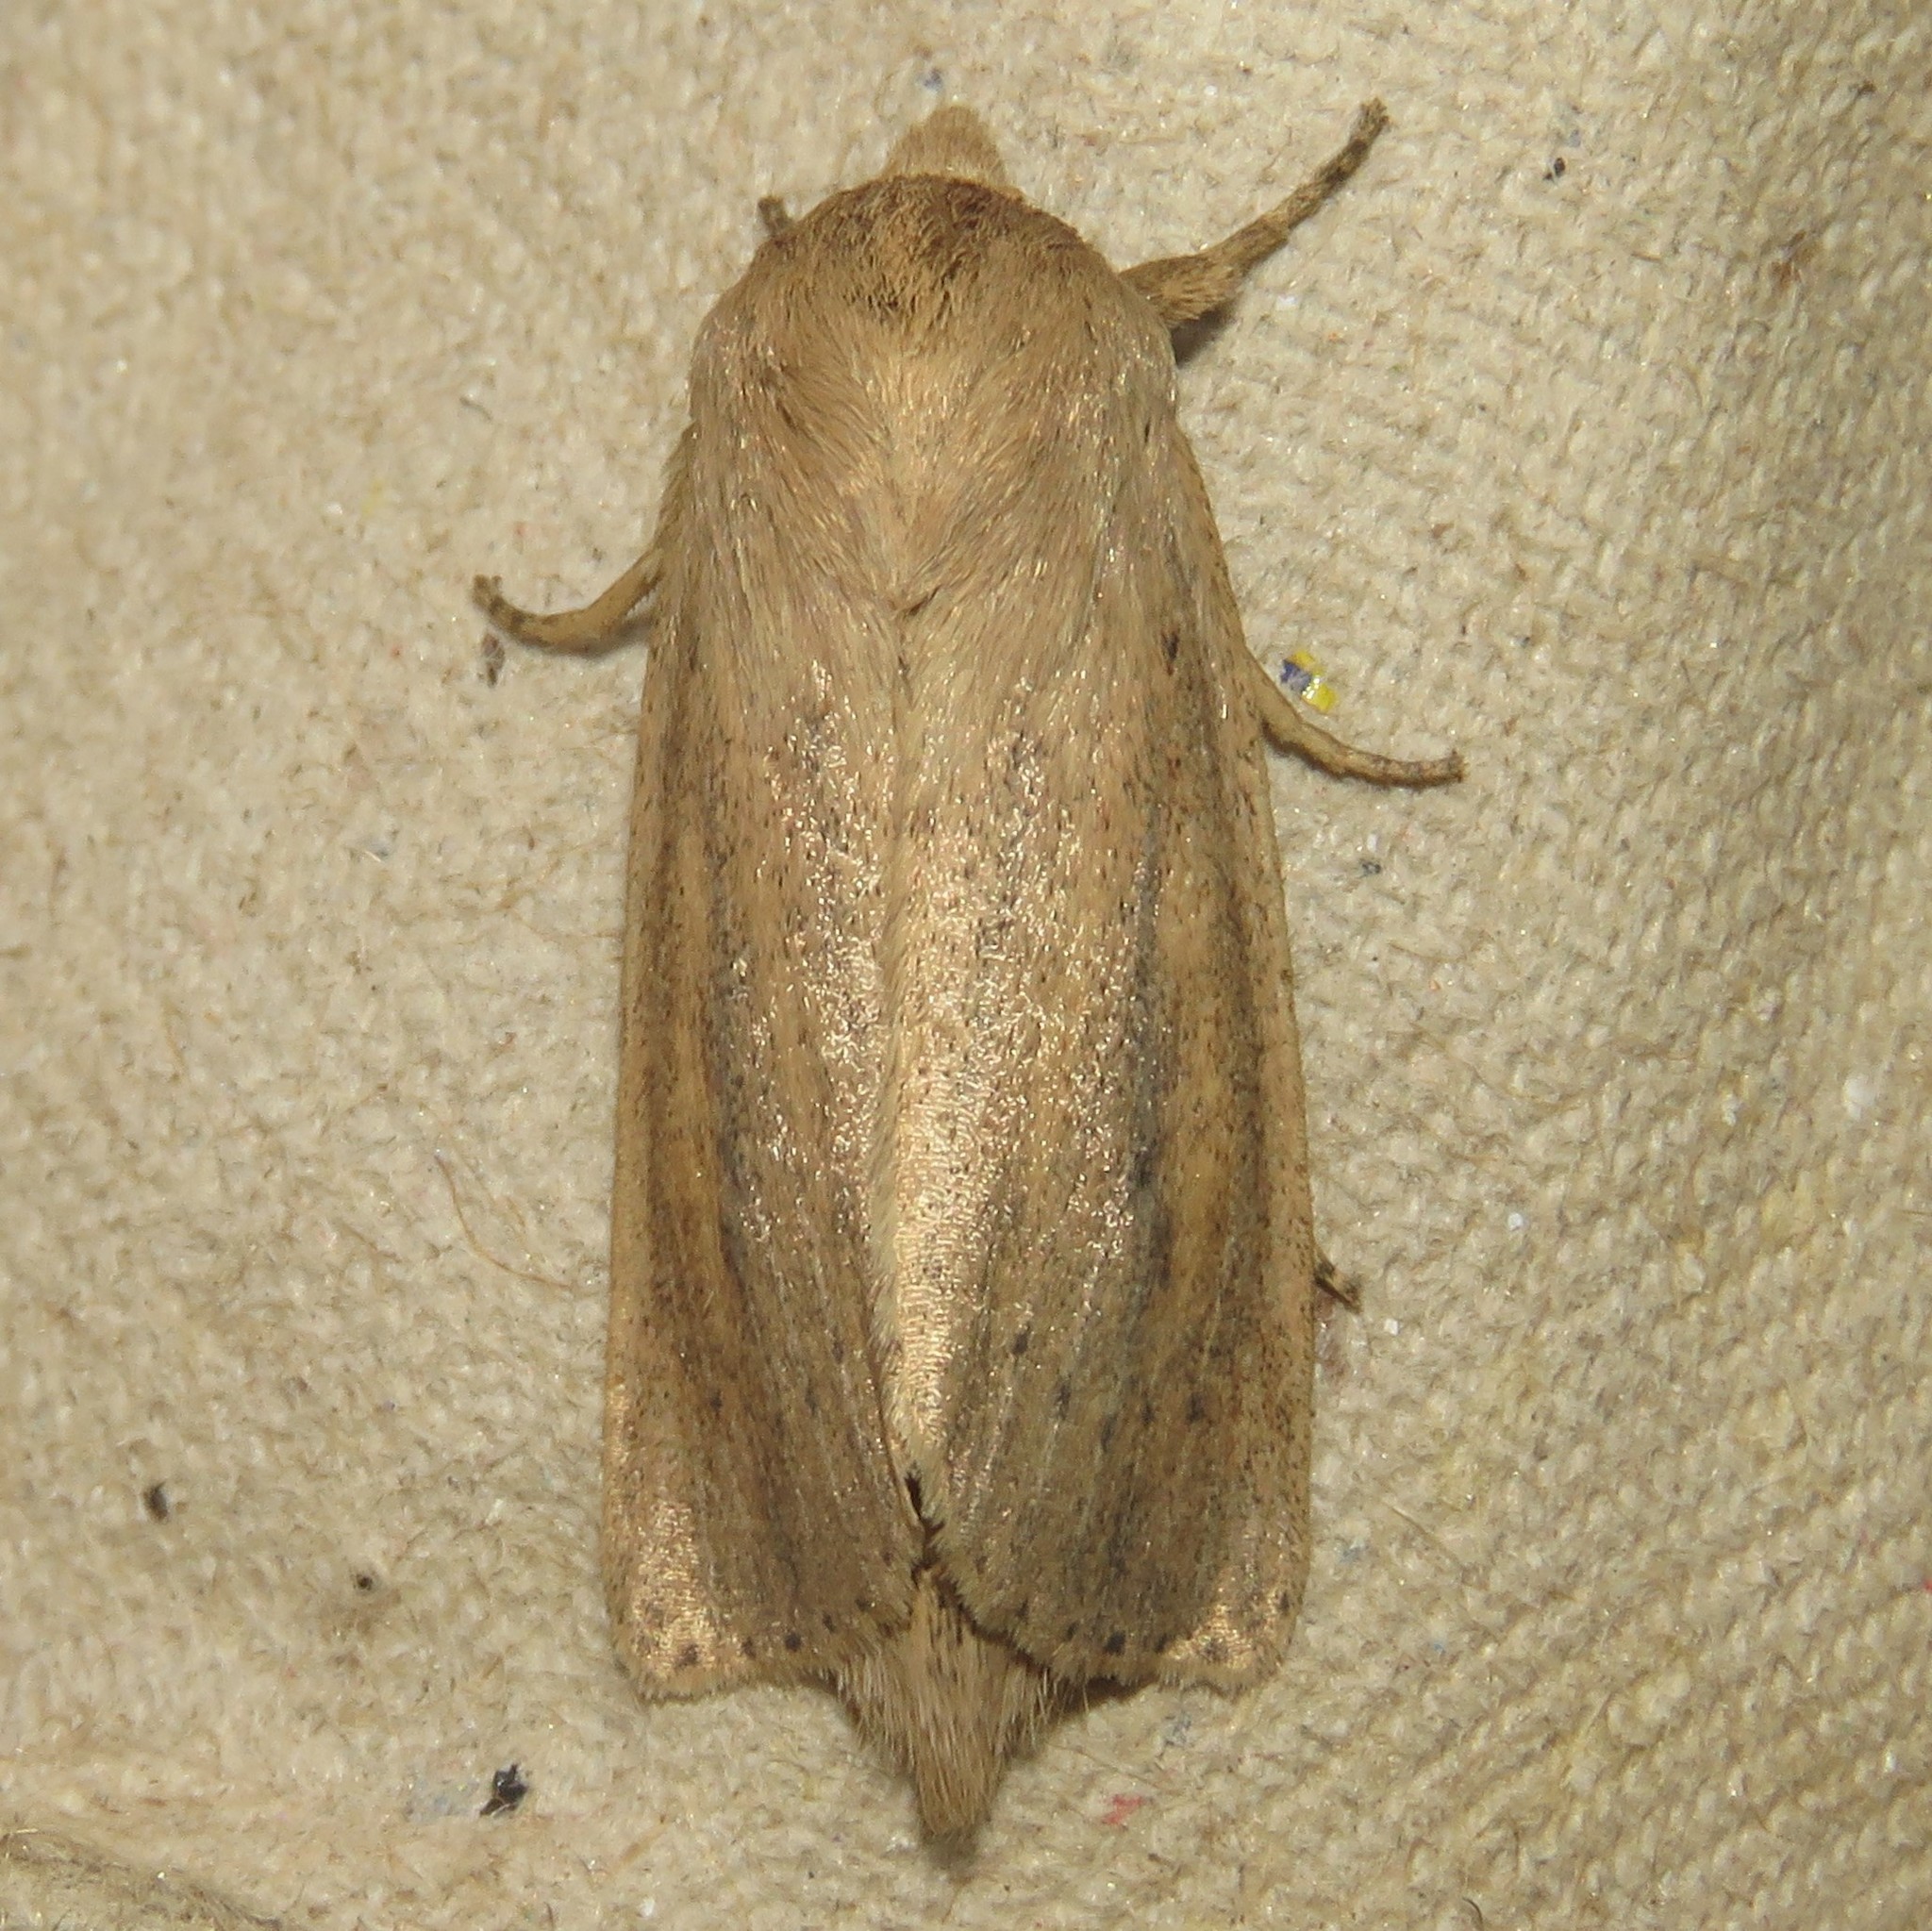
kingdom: Animalia
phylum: Arthropoda
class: Insecta
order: Lepidoptera
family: Noctuidae
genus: Globia
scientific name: Globia oblonga
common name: Oblong sedge borer moth
